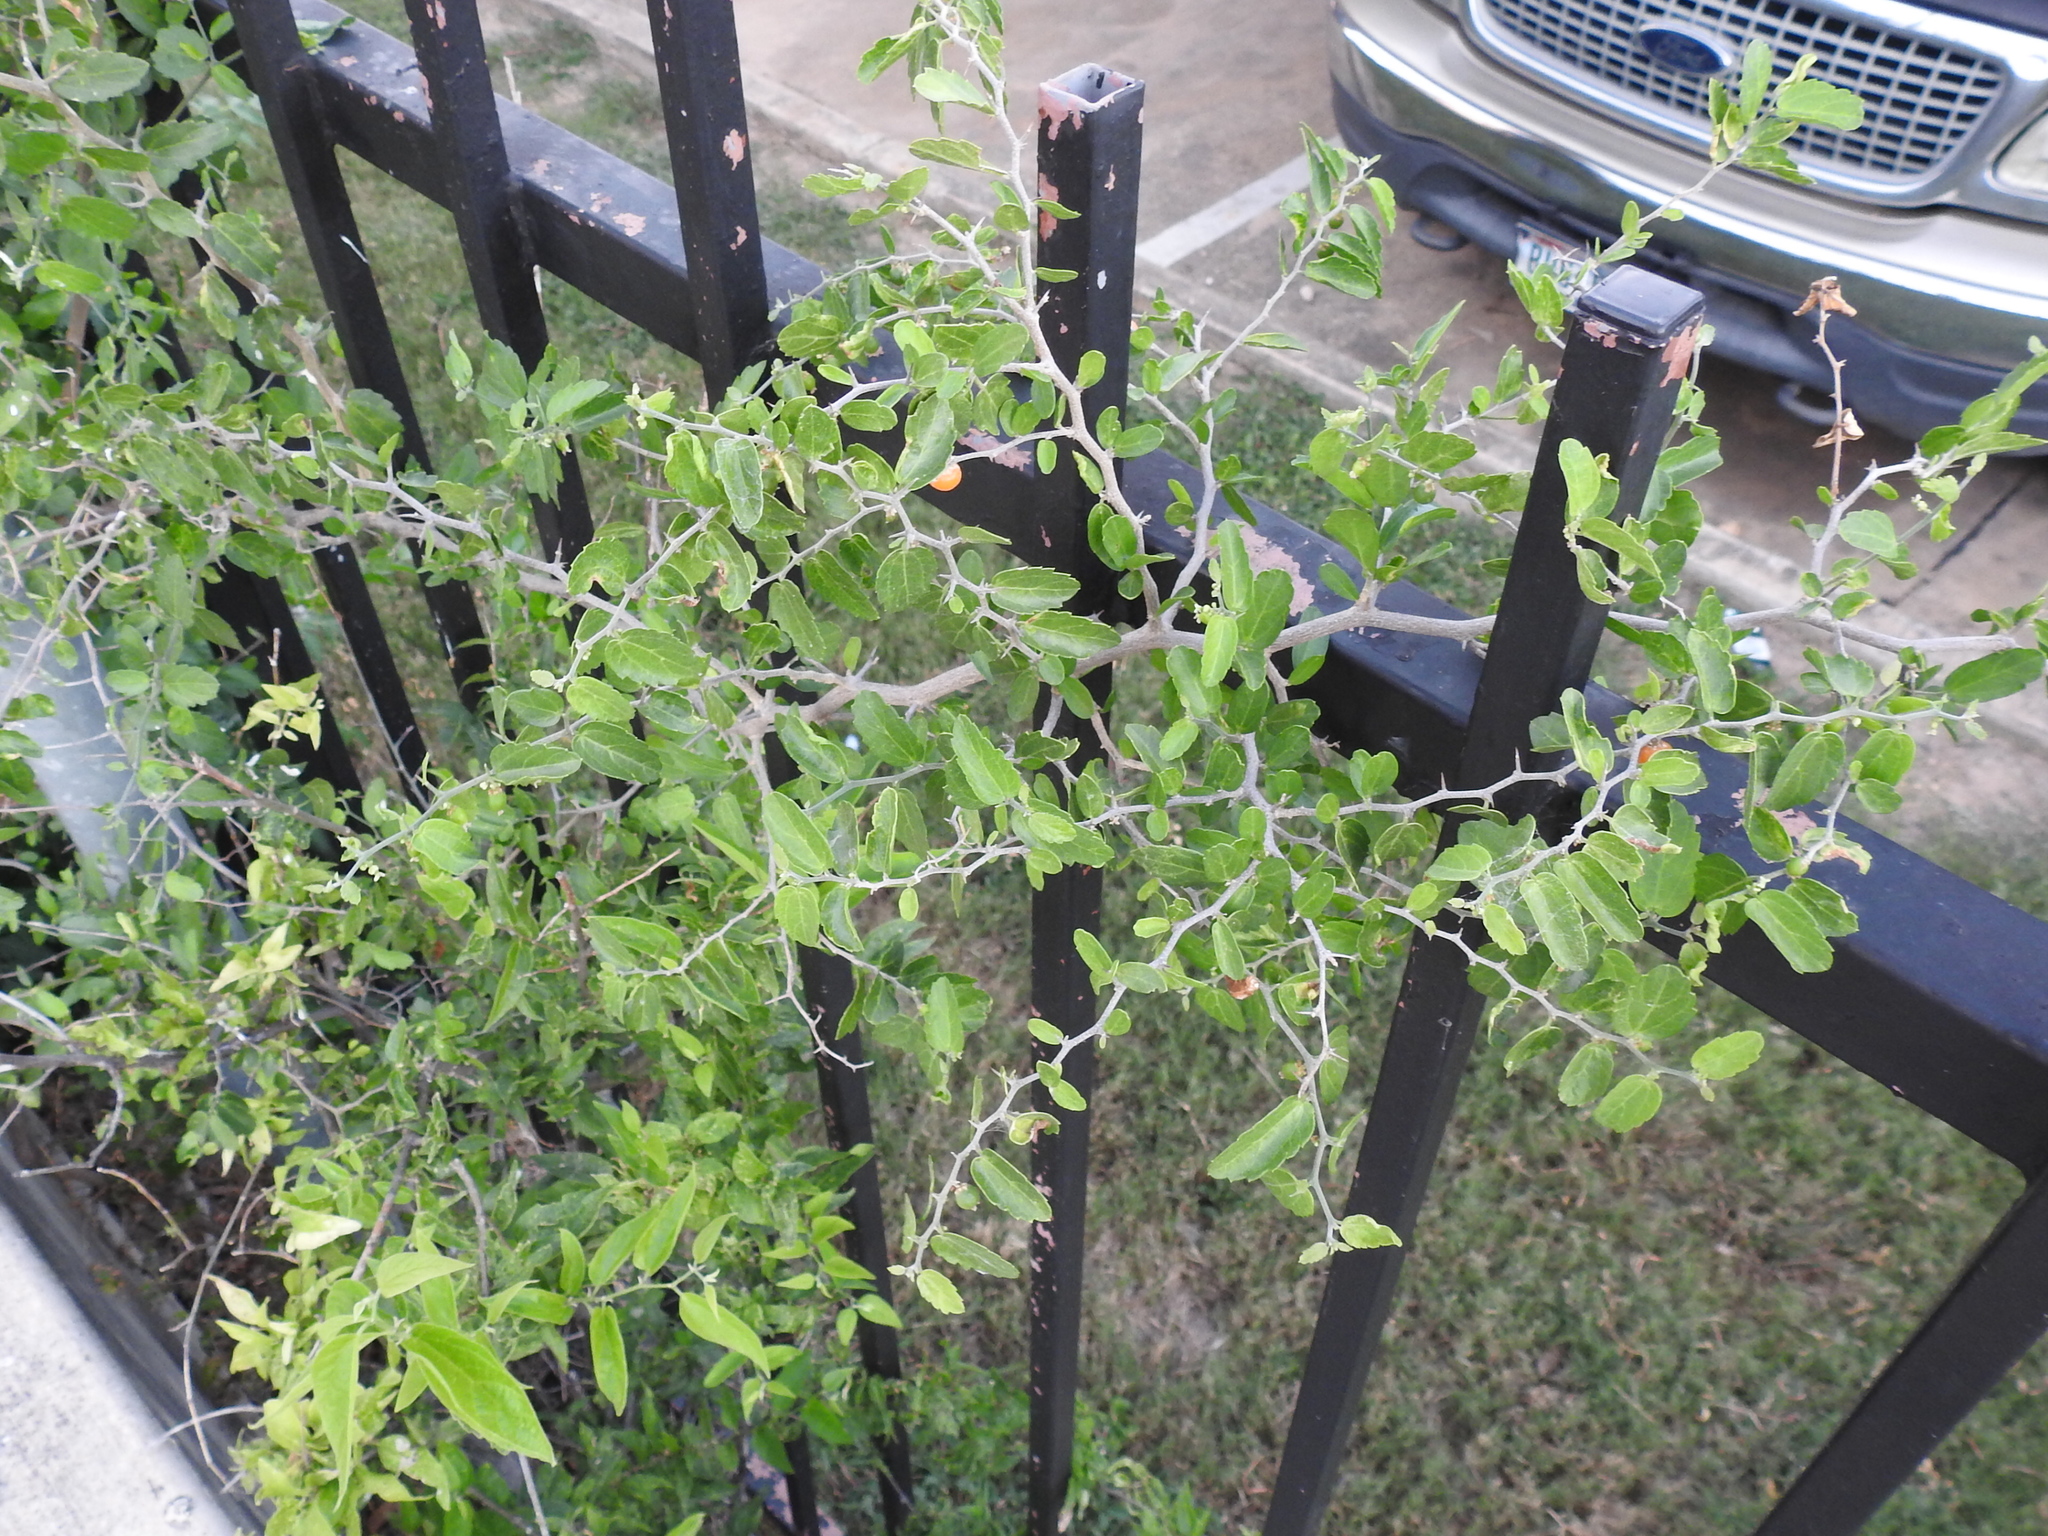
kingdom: Plantae
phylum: Tracheophyta
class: Magnoliopsida
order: Rosales
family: Cannabaceae
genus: Celtis
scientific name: Celtis pallida
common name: Desert hackberry
